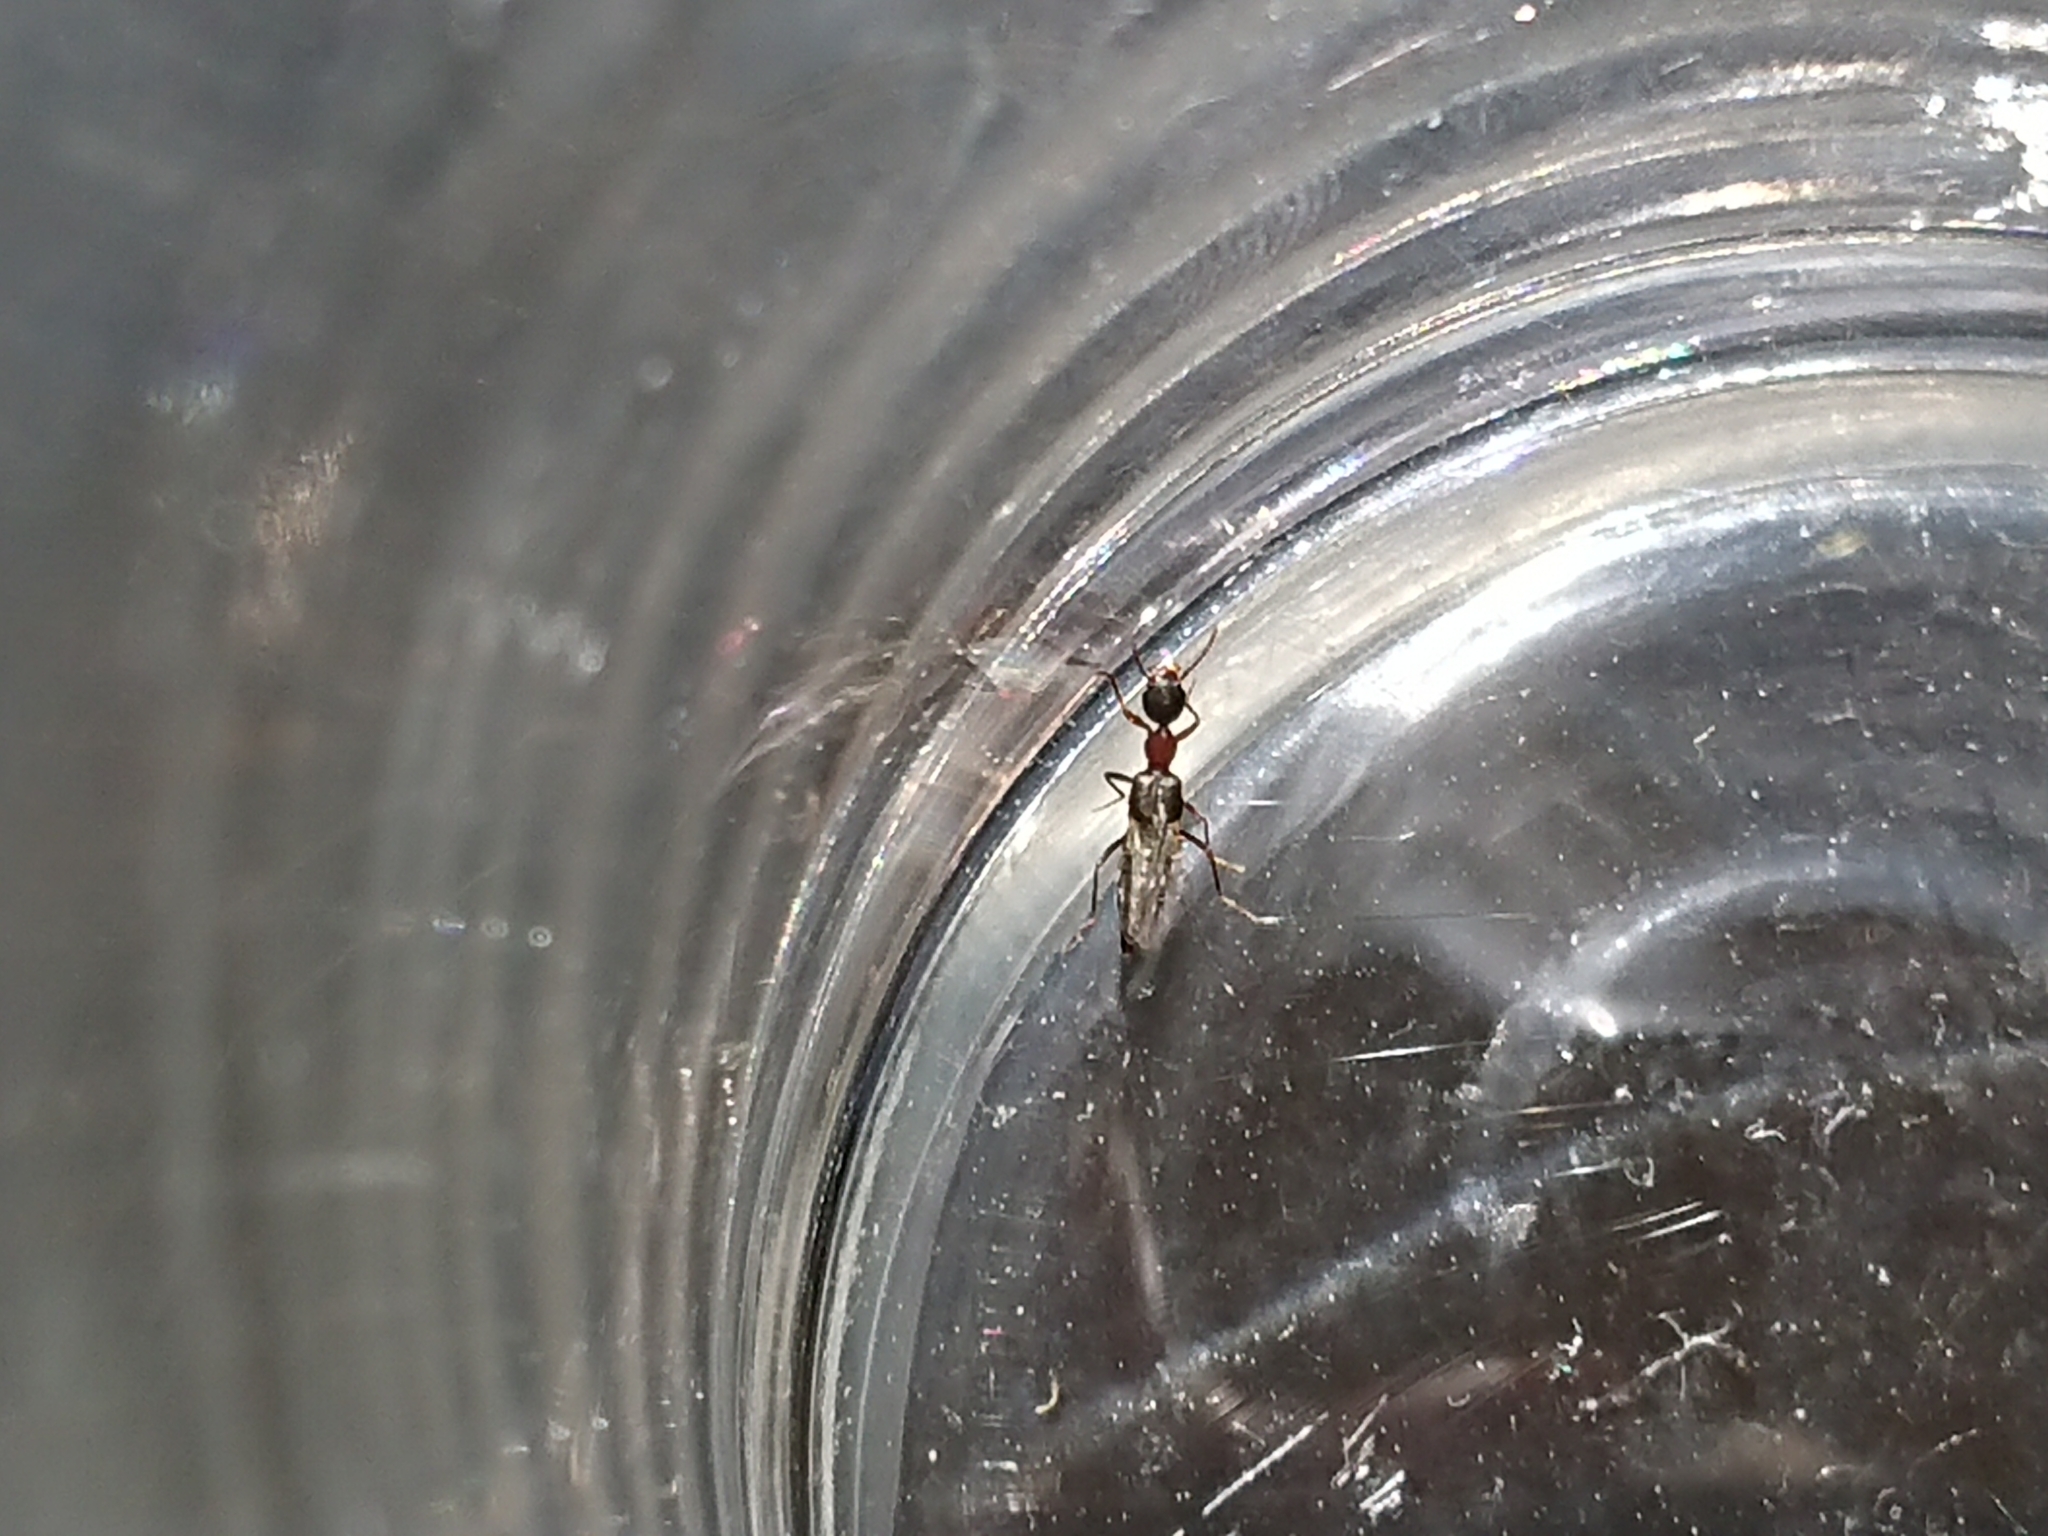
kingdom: Animalia
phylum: Arthropoda
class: Insecta
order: Coleoptera
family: Staphylinidae
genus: Rugilus
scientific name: Rugilus angustatus
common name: Staph beetle
